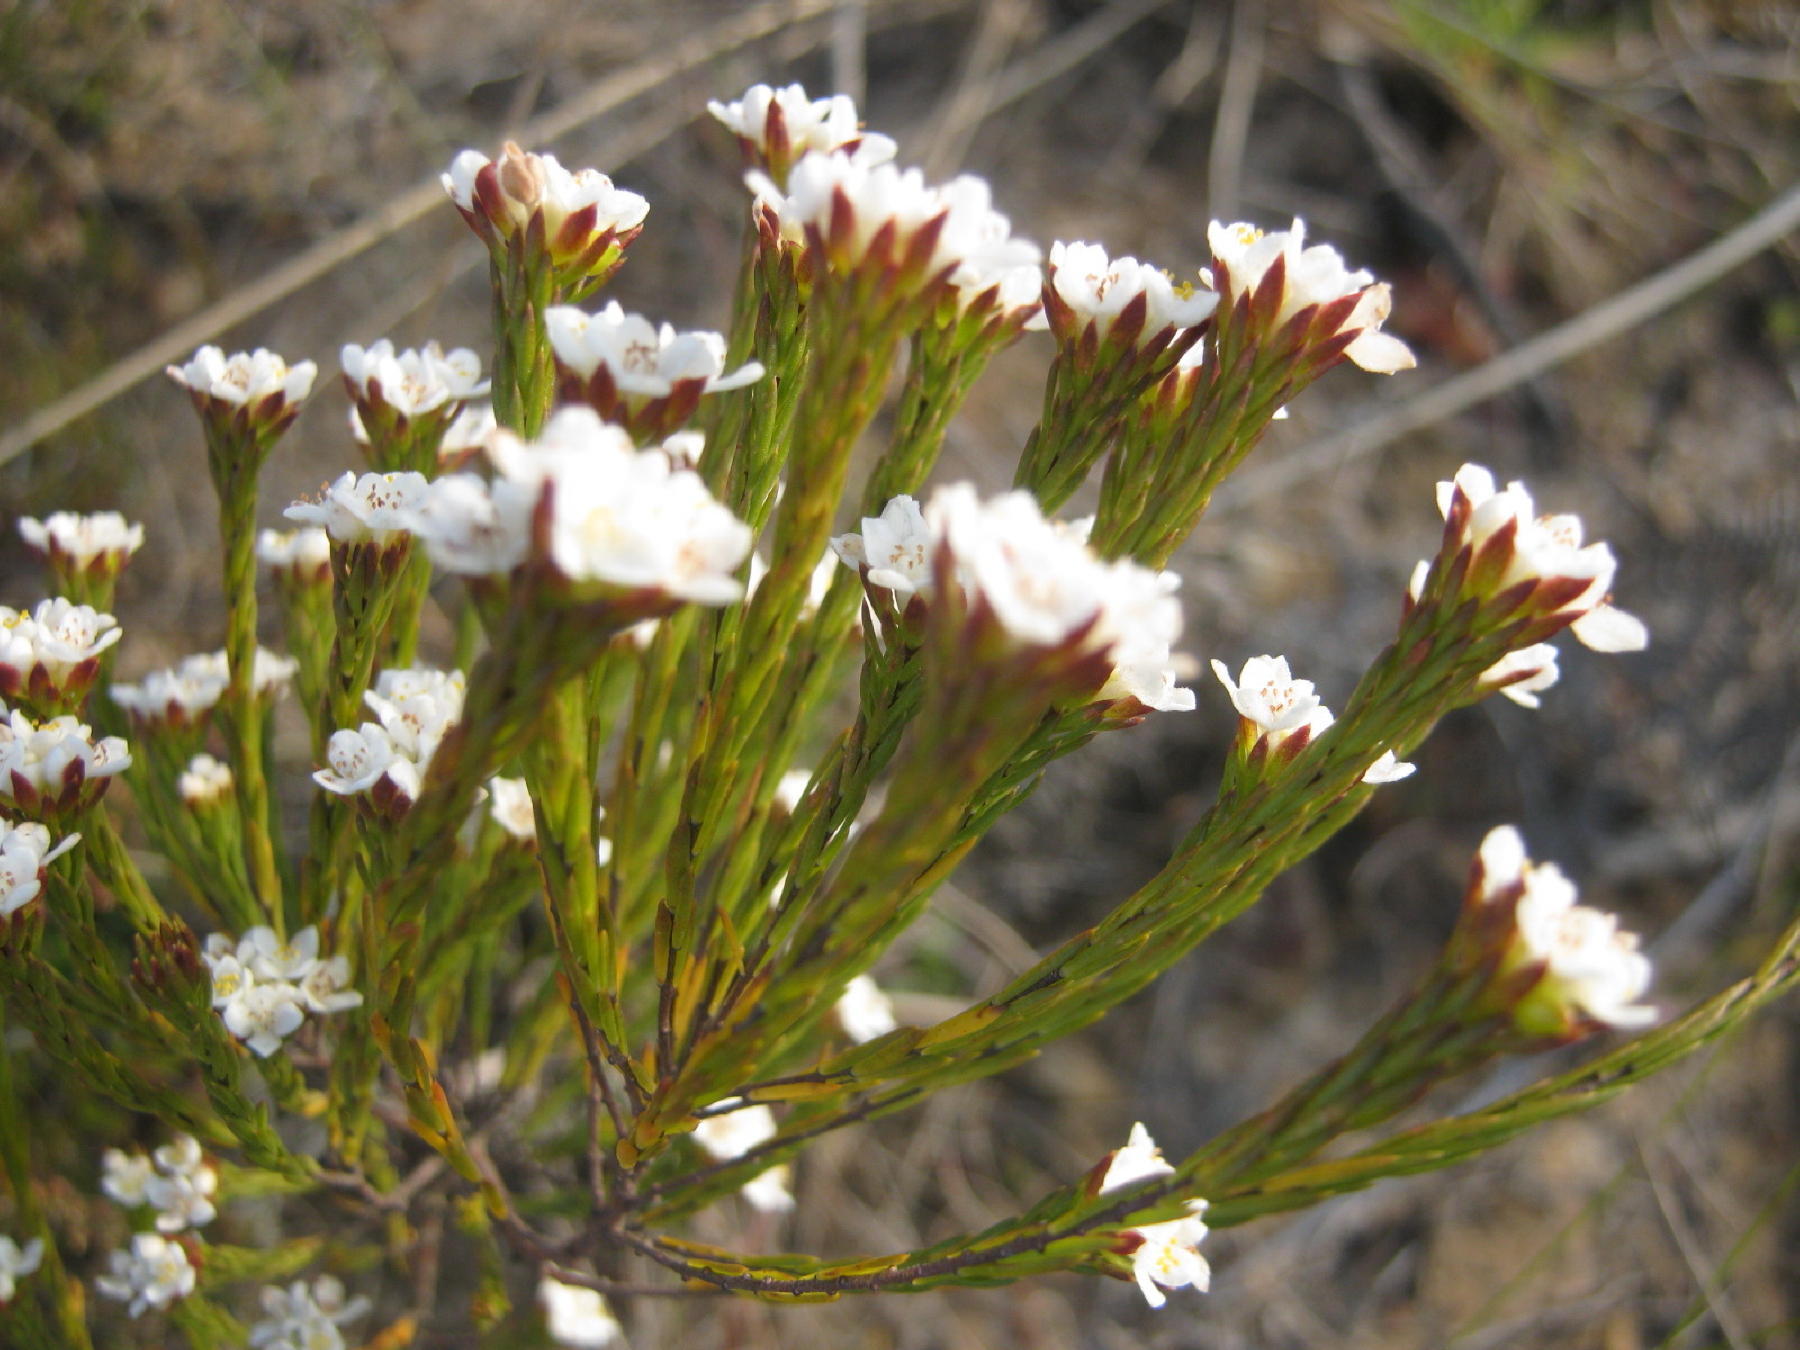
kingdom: Plantae
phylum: Tracheophyta
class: Magnoliopsida
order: Malvales
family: Thymelaeaceae
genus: Lachnaea
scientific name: Lachnaea diosmoides
